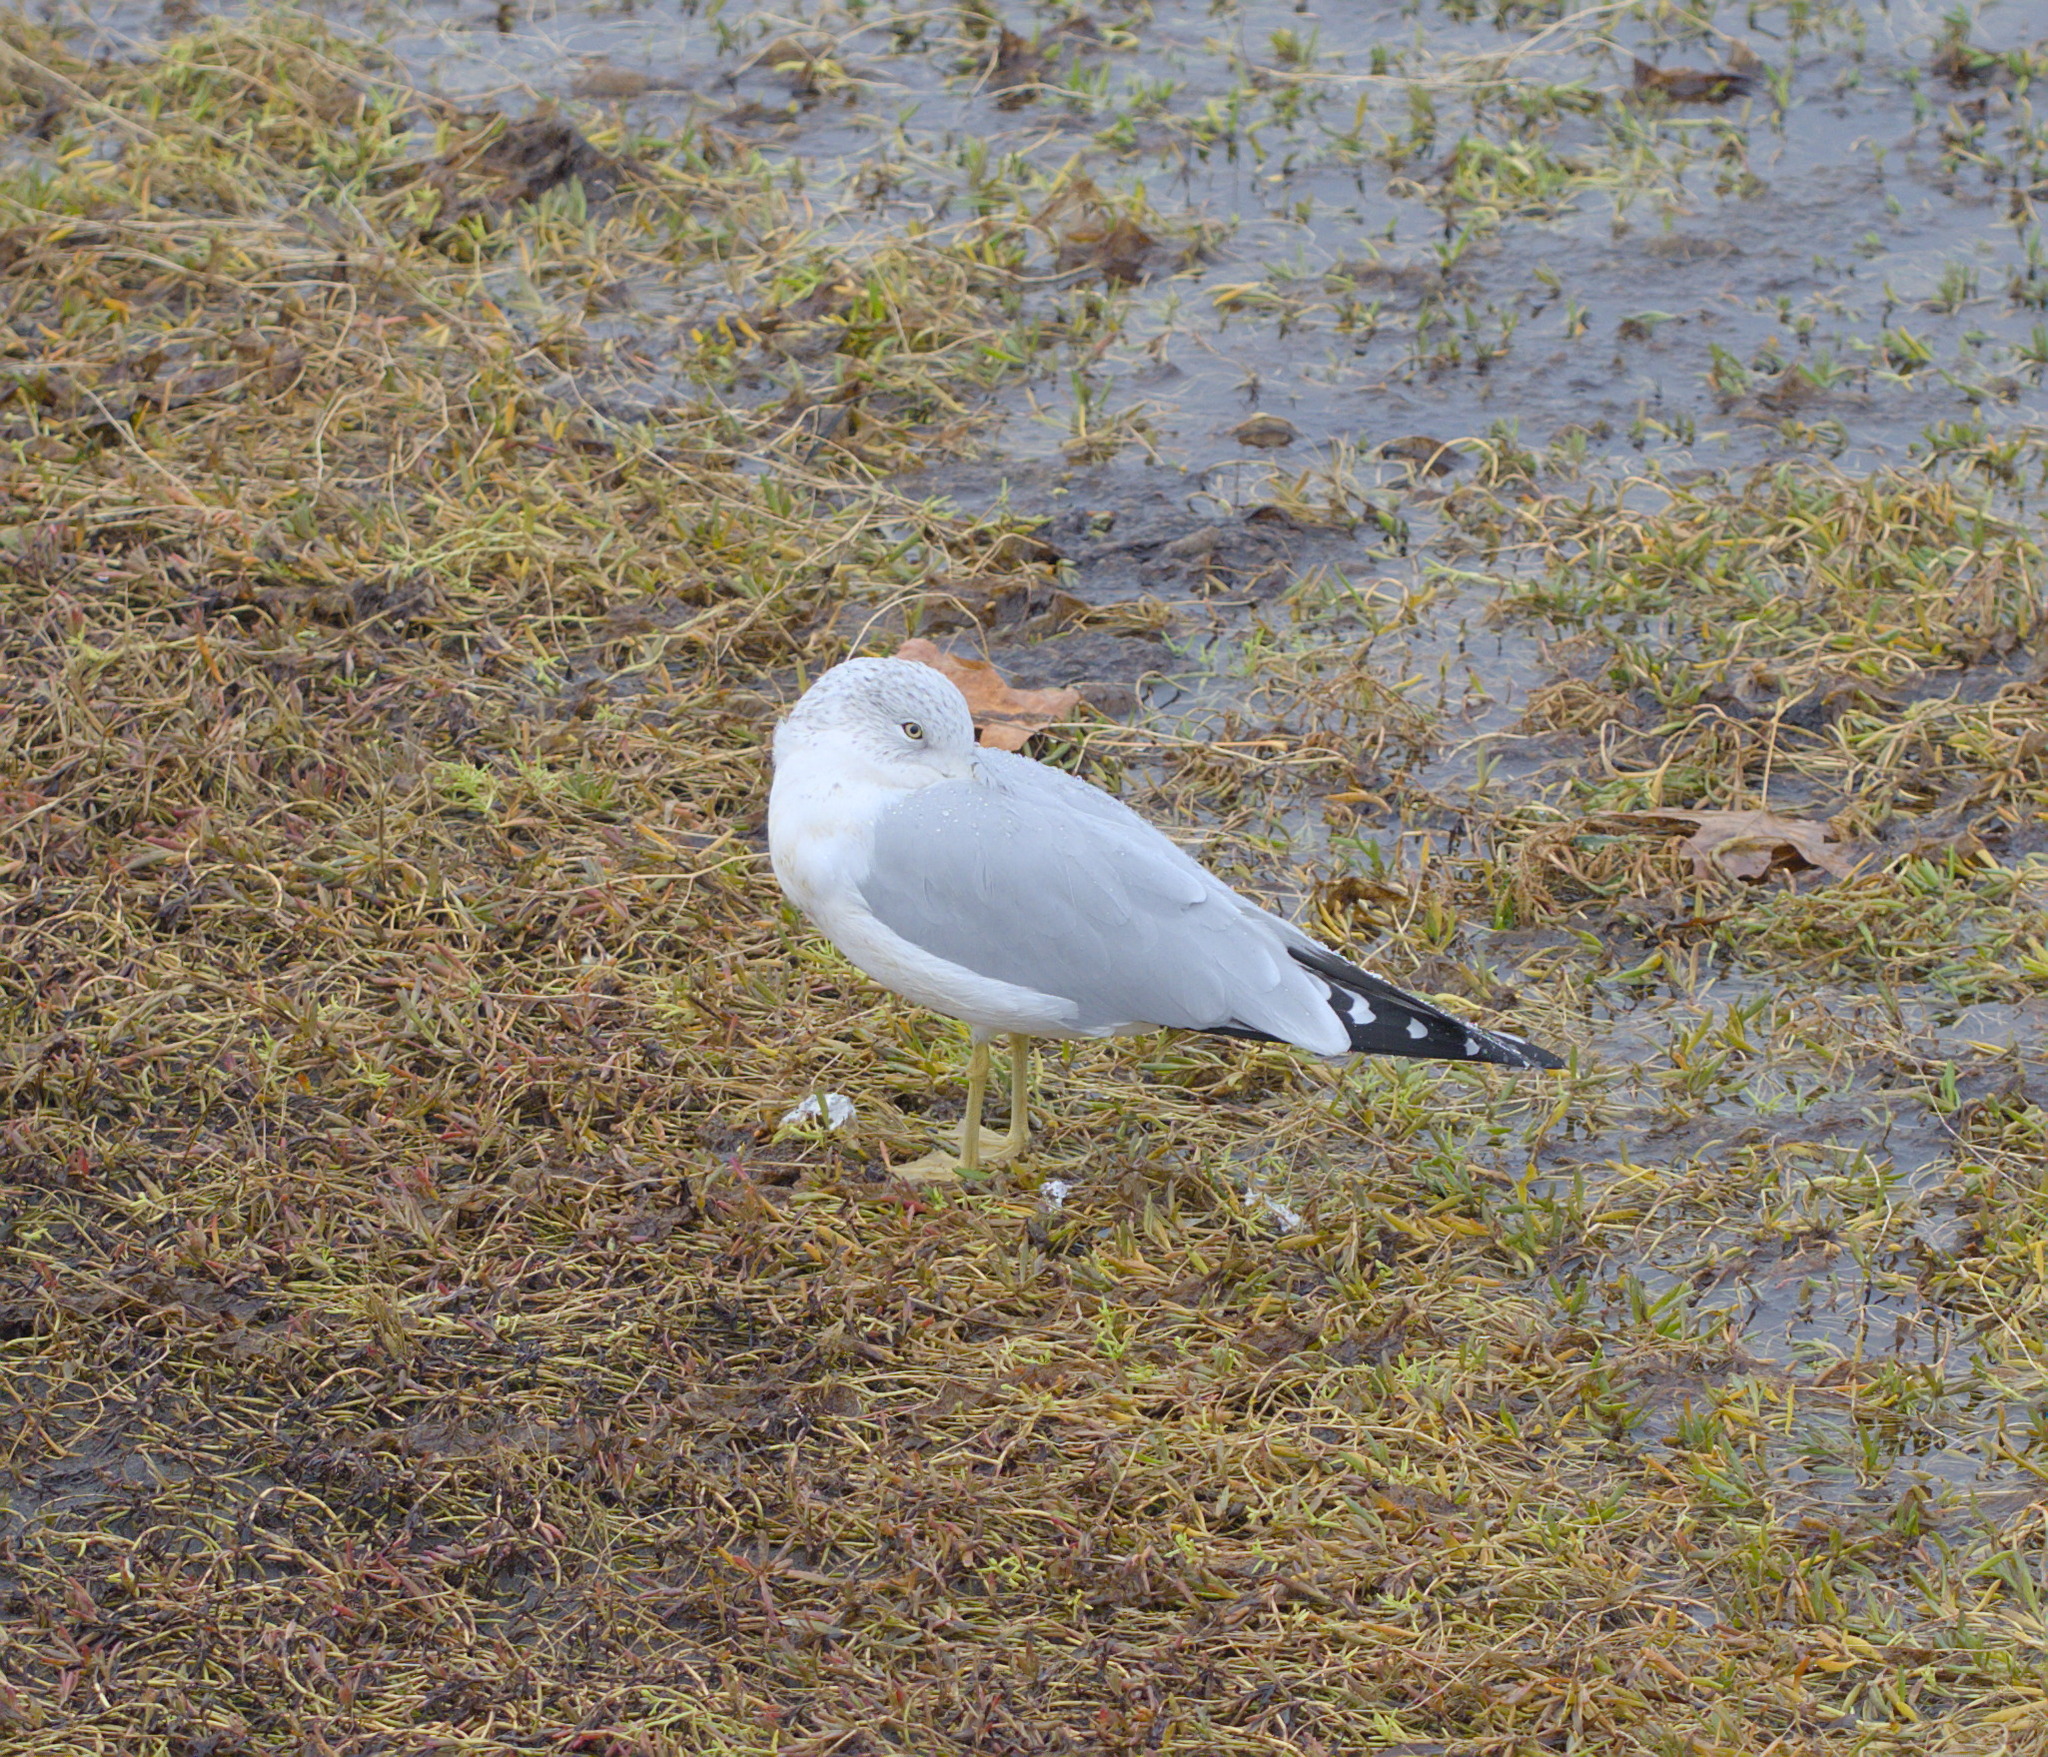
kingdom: Animalia
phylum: Chordata
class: Aves
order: Charadriiformes
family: Laridae
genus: Larus
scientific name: Larus delawarensis
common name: Ring-billed gull
